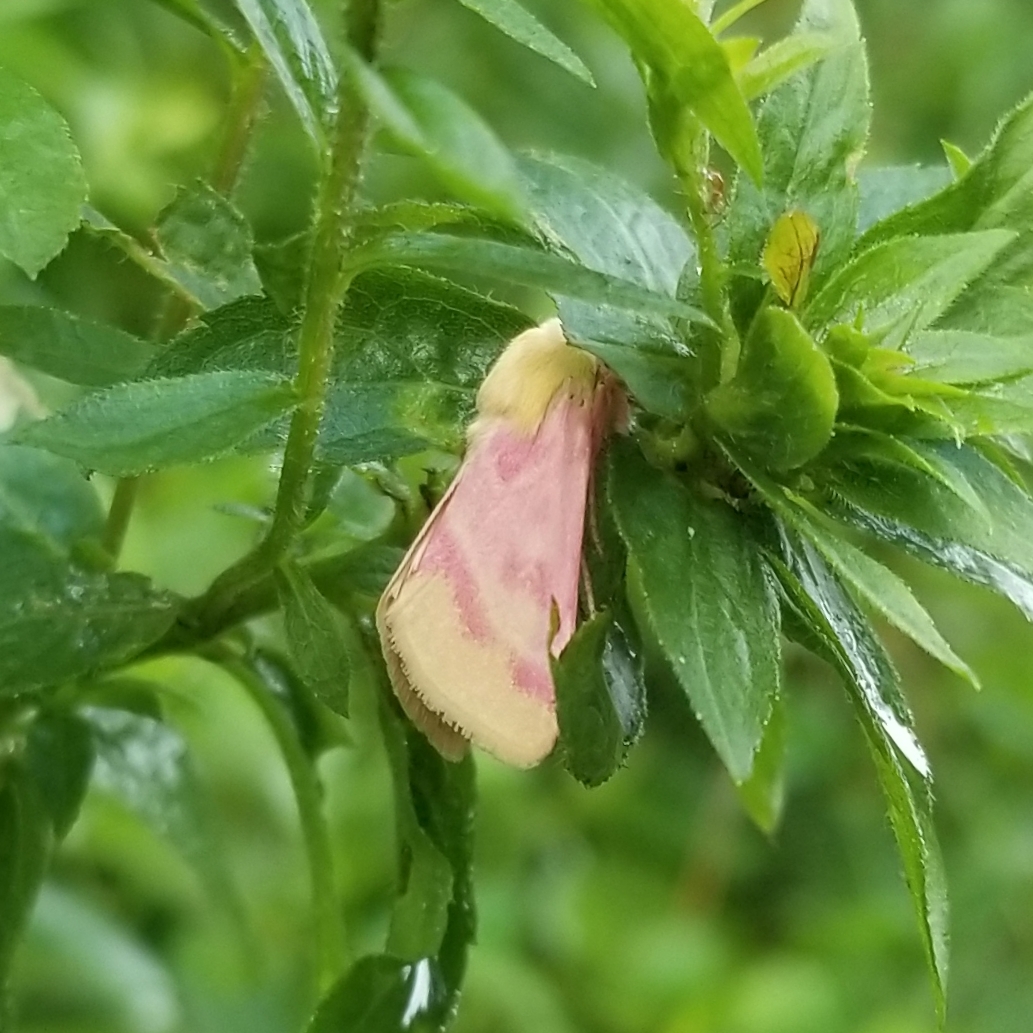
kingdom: Animalia
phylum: Arthropoda
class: Insecta
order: Lepidoptera
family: Noctuidae
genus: Schinia
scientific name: Schinia florida
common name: Primrose moth
